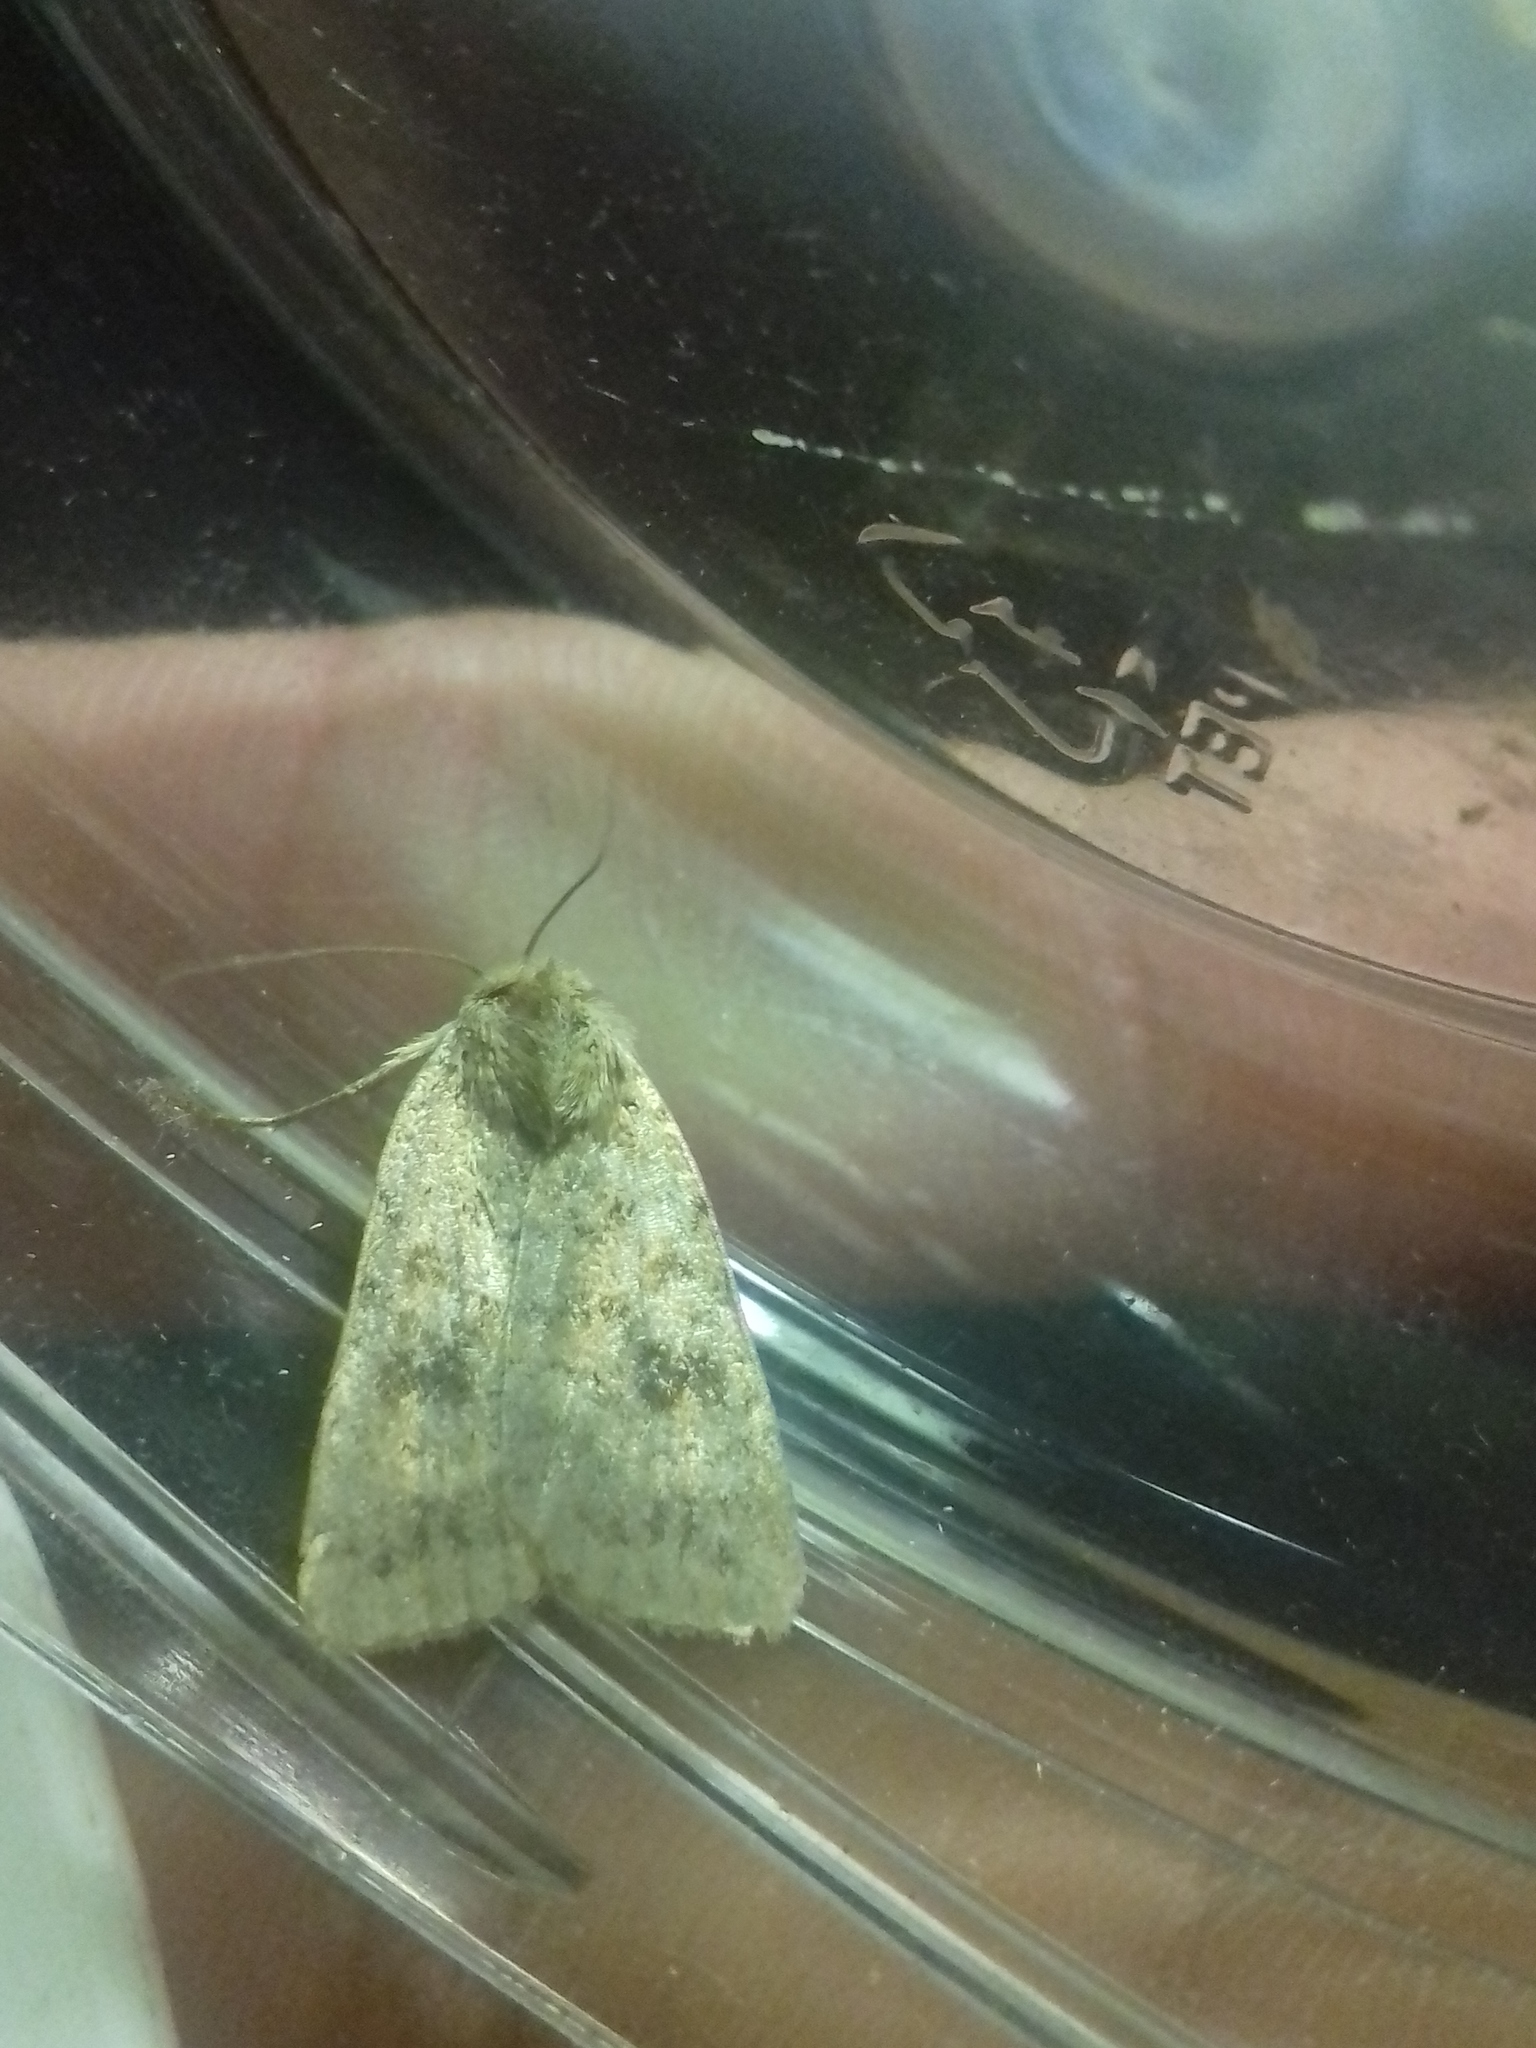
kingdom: Animalia
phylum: Arthropoda
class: Insecta
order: Lepidoptera
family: Noctuidae
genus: Caradrina
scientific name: Caradrina morpheus
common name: Mottled rustic
